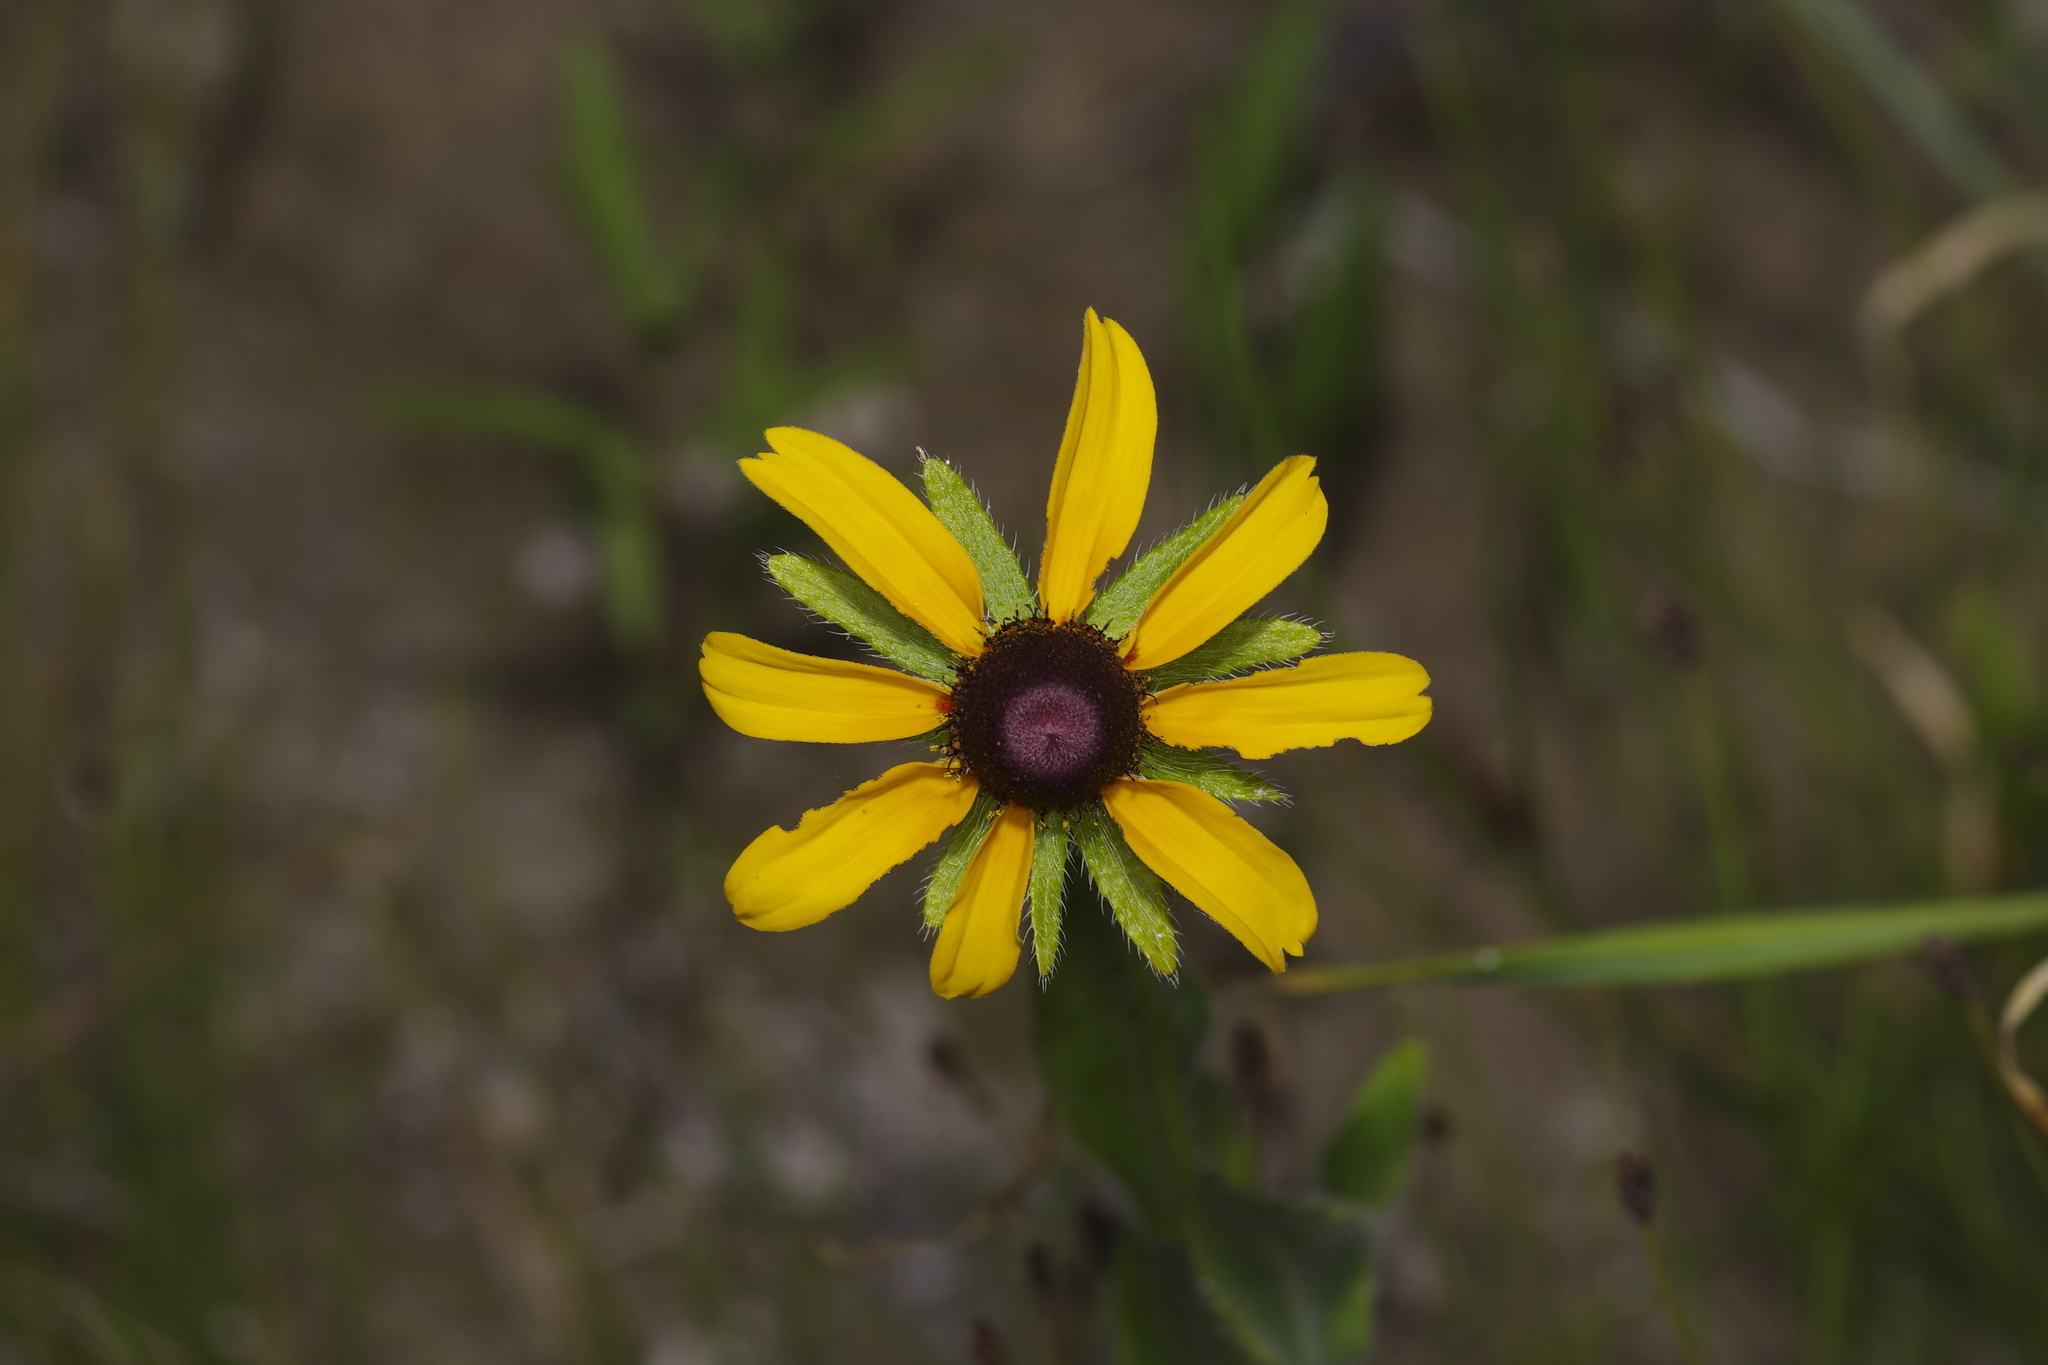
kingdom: Plantae
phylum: Tracheophyta
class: Magnoliopsida
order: Asterales
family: Asteraceae
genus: Rudbeckia
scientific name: Rudbeckia hirta
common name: Black-eyed-susan
